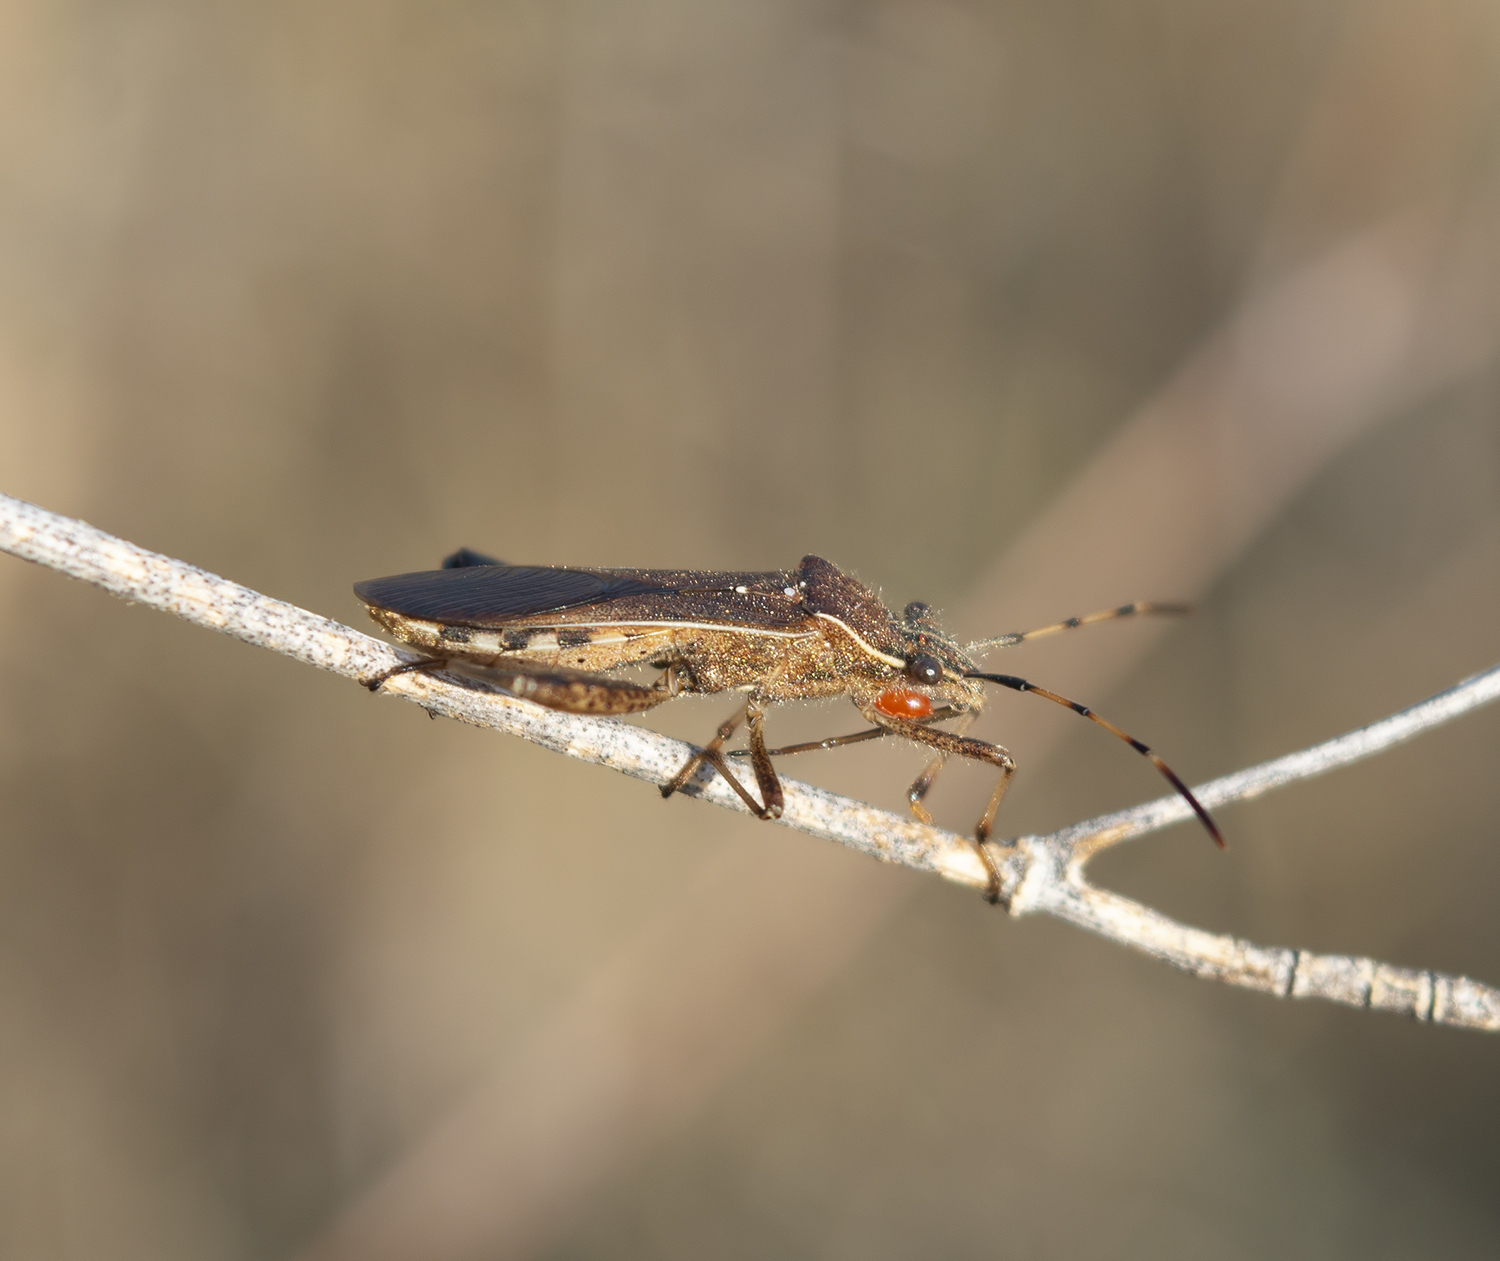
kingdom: Animalia
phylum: Arthropoda
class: Insecta
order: Hemiptera
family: Alydidae
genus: Camptopus
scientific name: Camptopus lateralis
